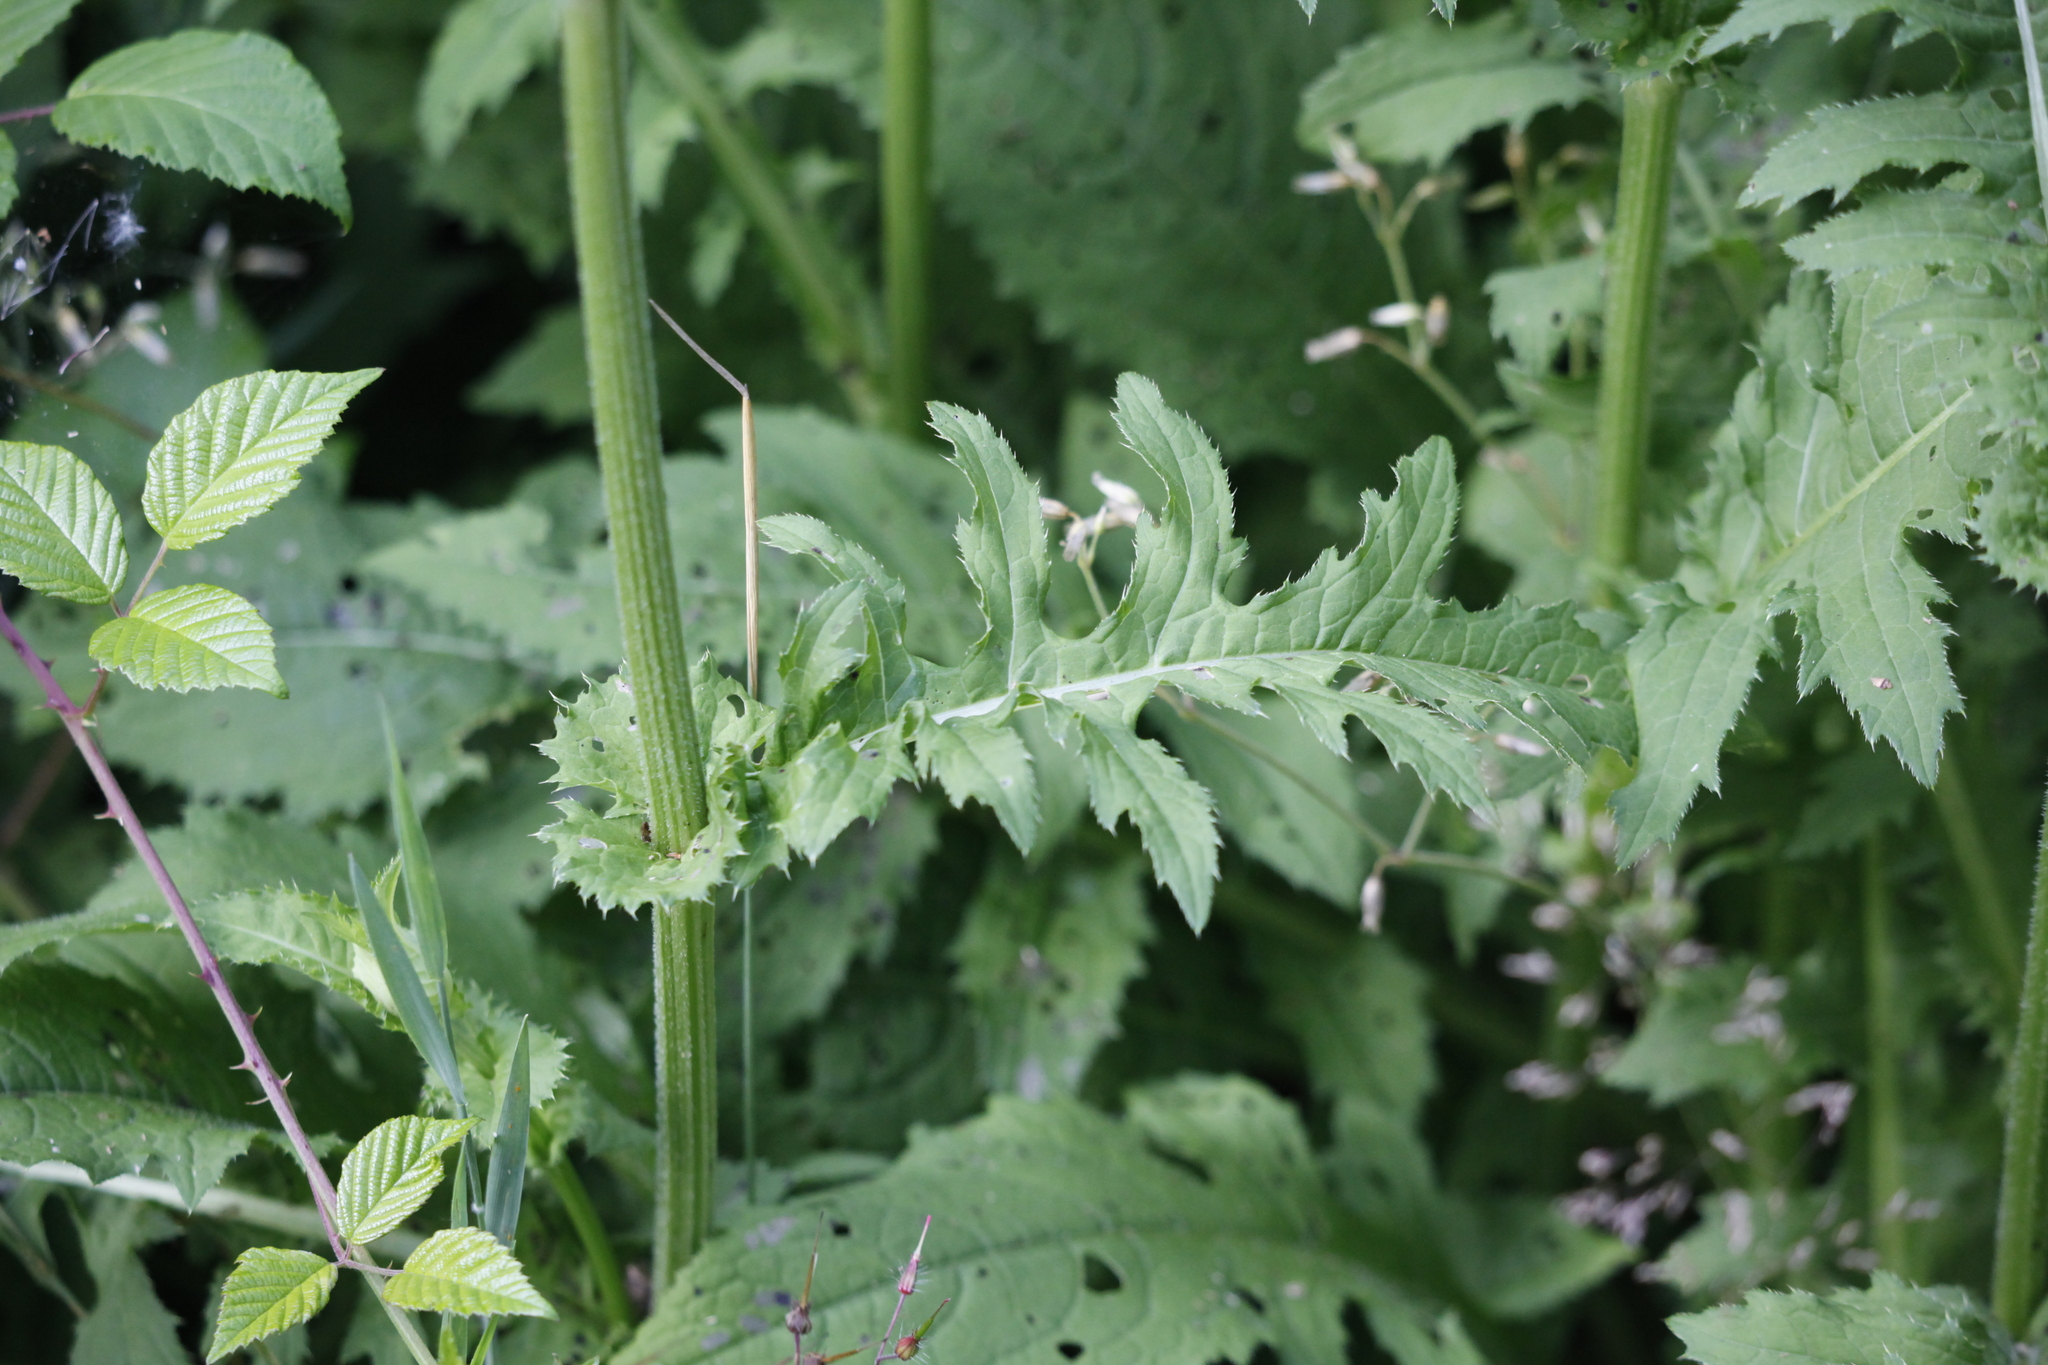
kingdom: Plantae
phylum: Tracheophyta
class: Magnoliopsida
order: Asterales
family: Asteraceae
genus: Cirsium
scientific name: Cirsium oleraceum
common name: Cabbage thistle
